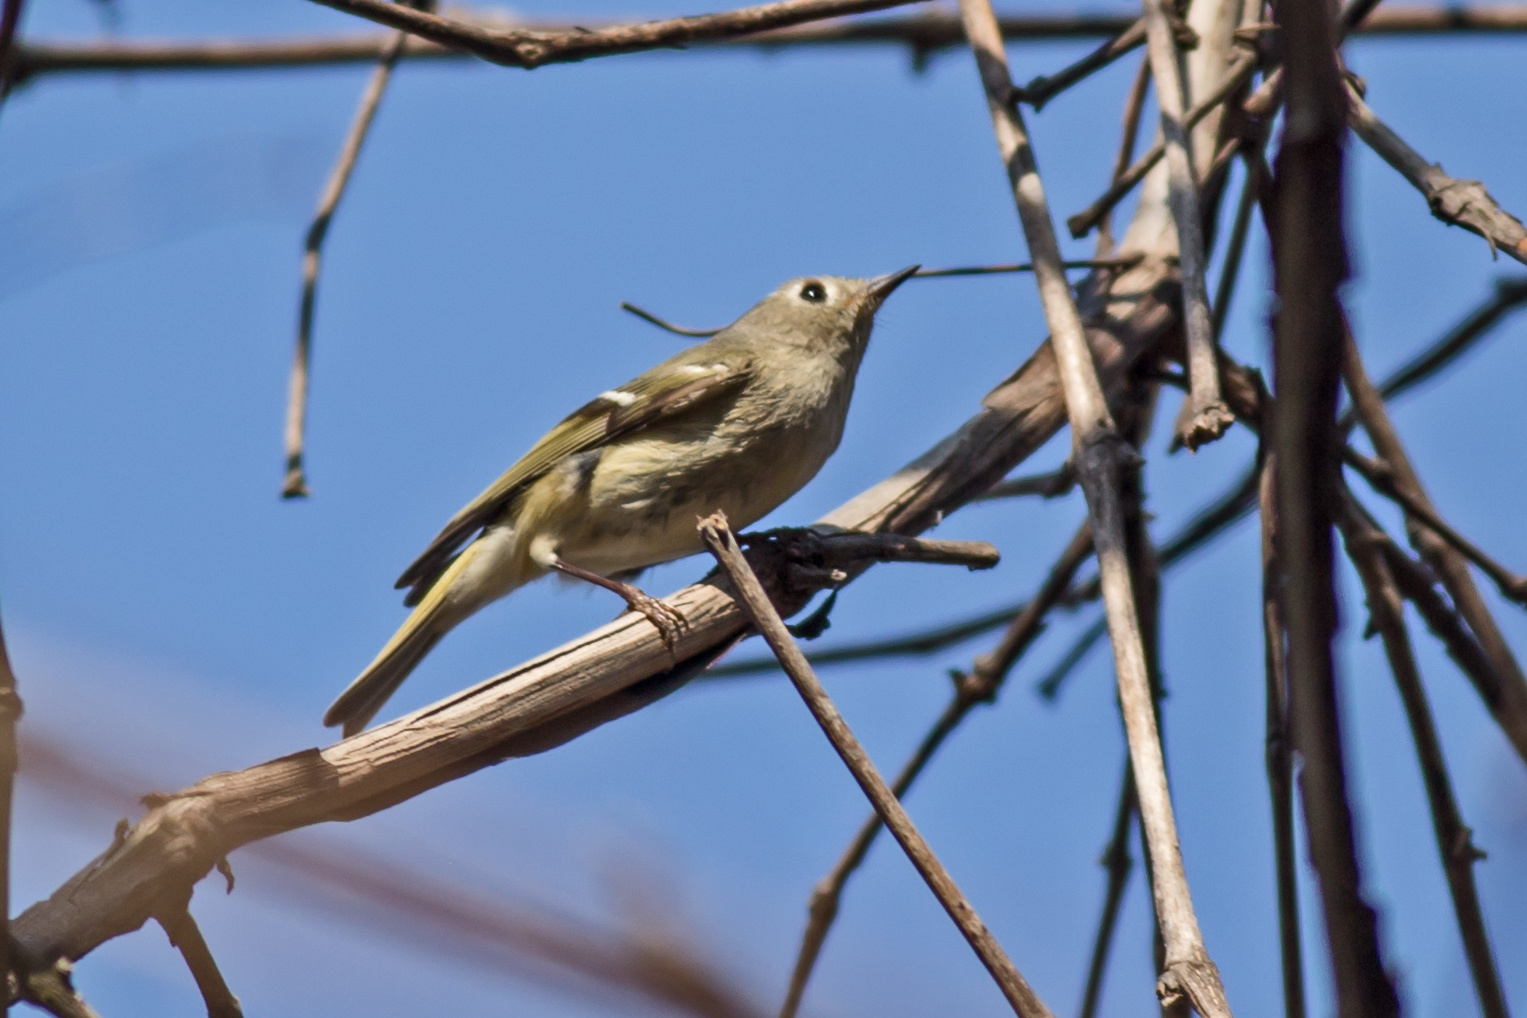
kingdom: Animalia
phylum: Chordata
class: Aves
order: Passeriformes
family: Regulidae
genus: Regulus
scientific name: Regulus calendula
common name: Ruby-crowned kinglet
